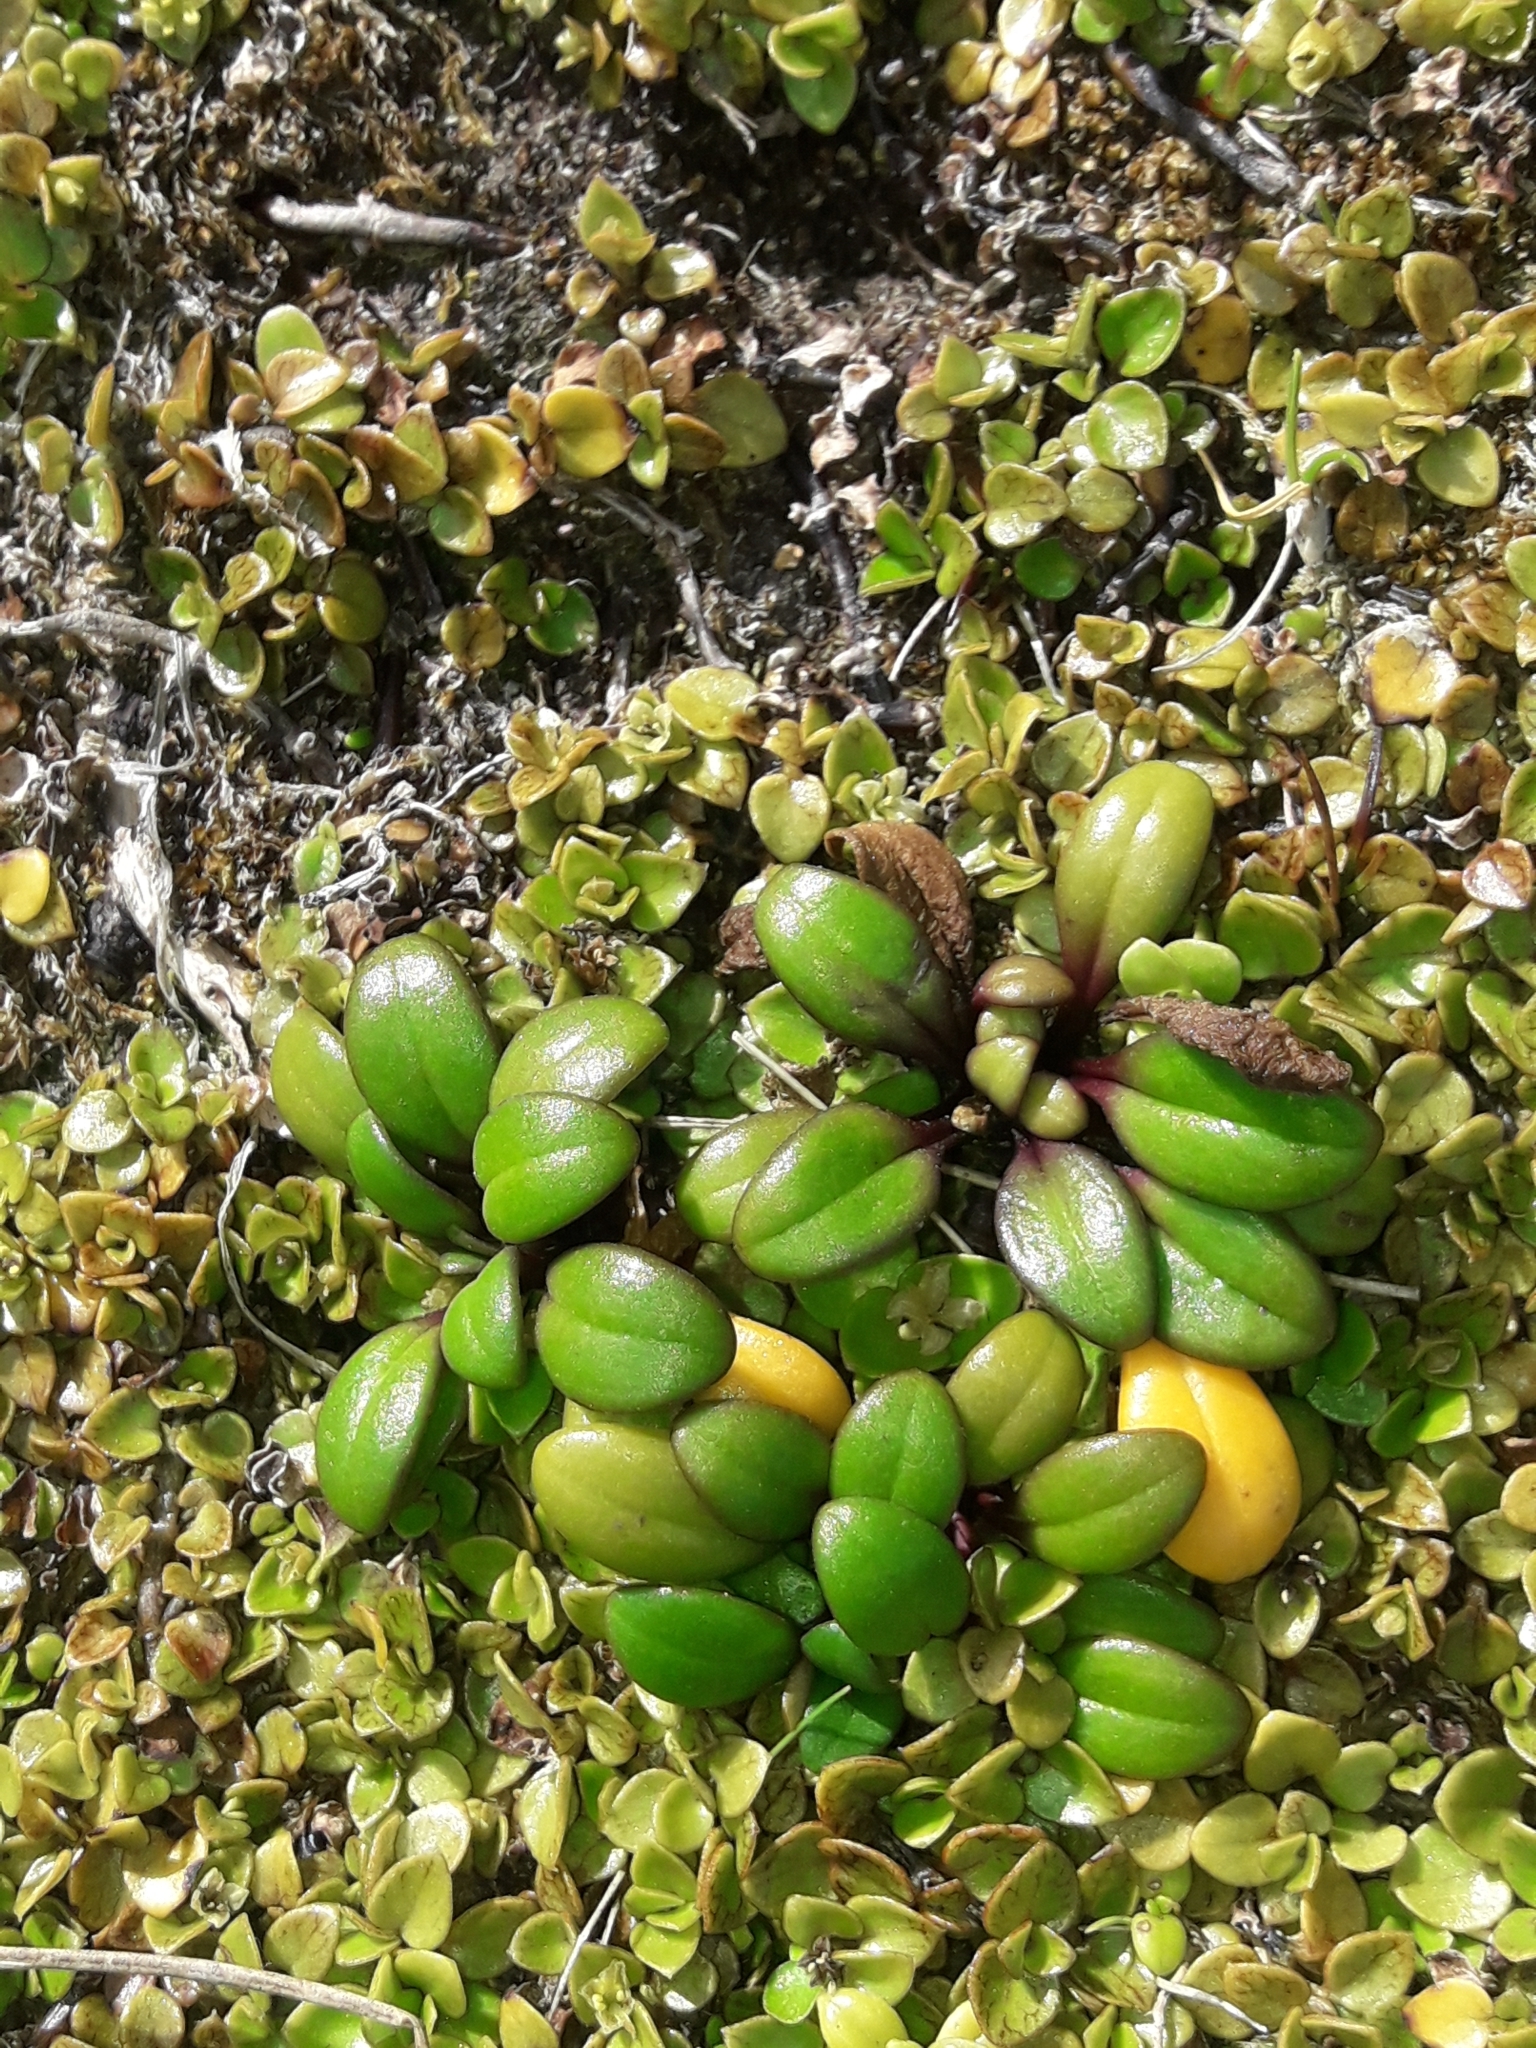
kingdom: Plantae
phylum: Tracheophyta
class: Magnoliopsida
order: Gentianales
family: Gentianaceae
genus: Gentianella
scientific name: Gentianella saxosa
